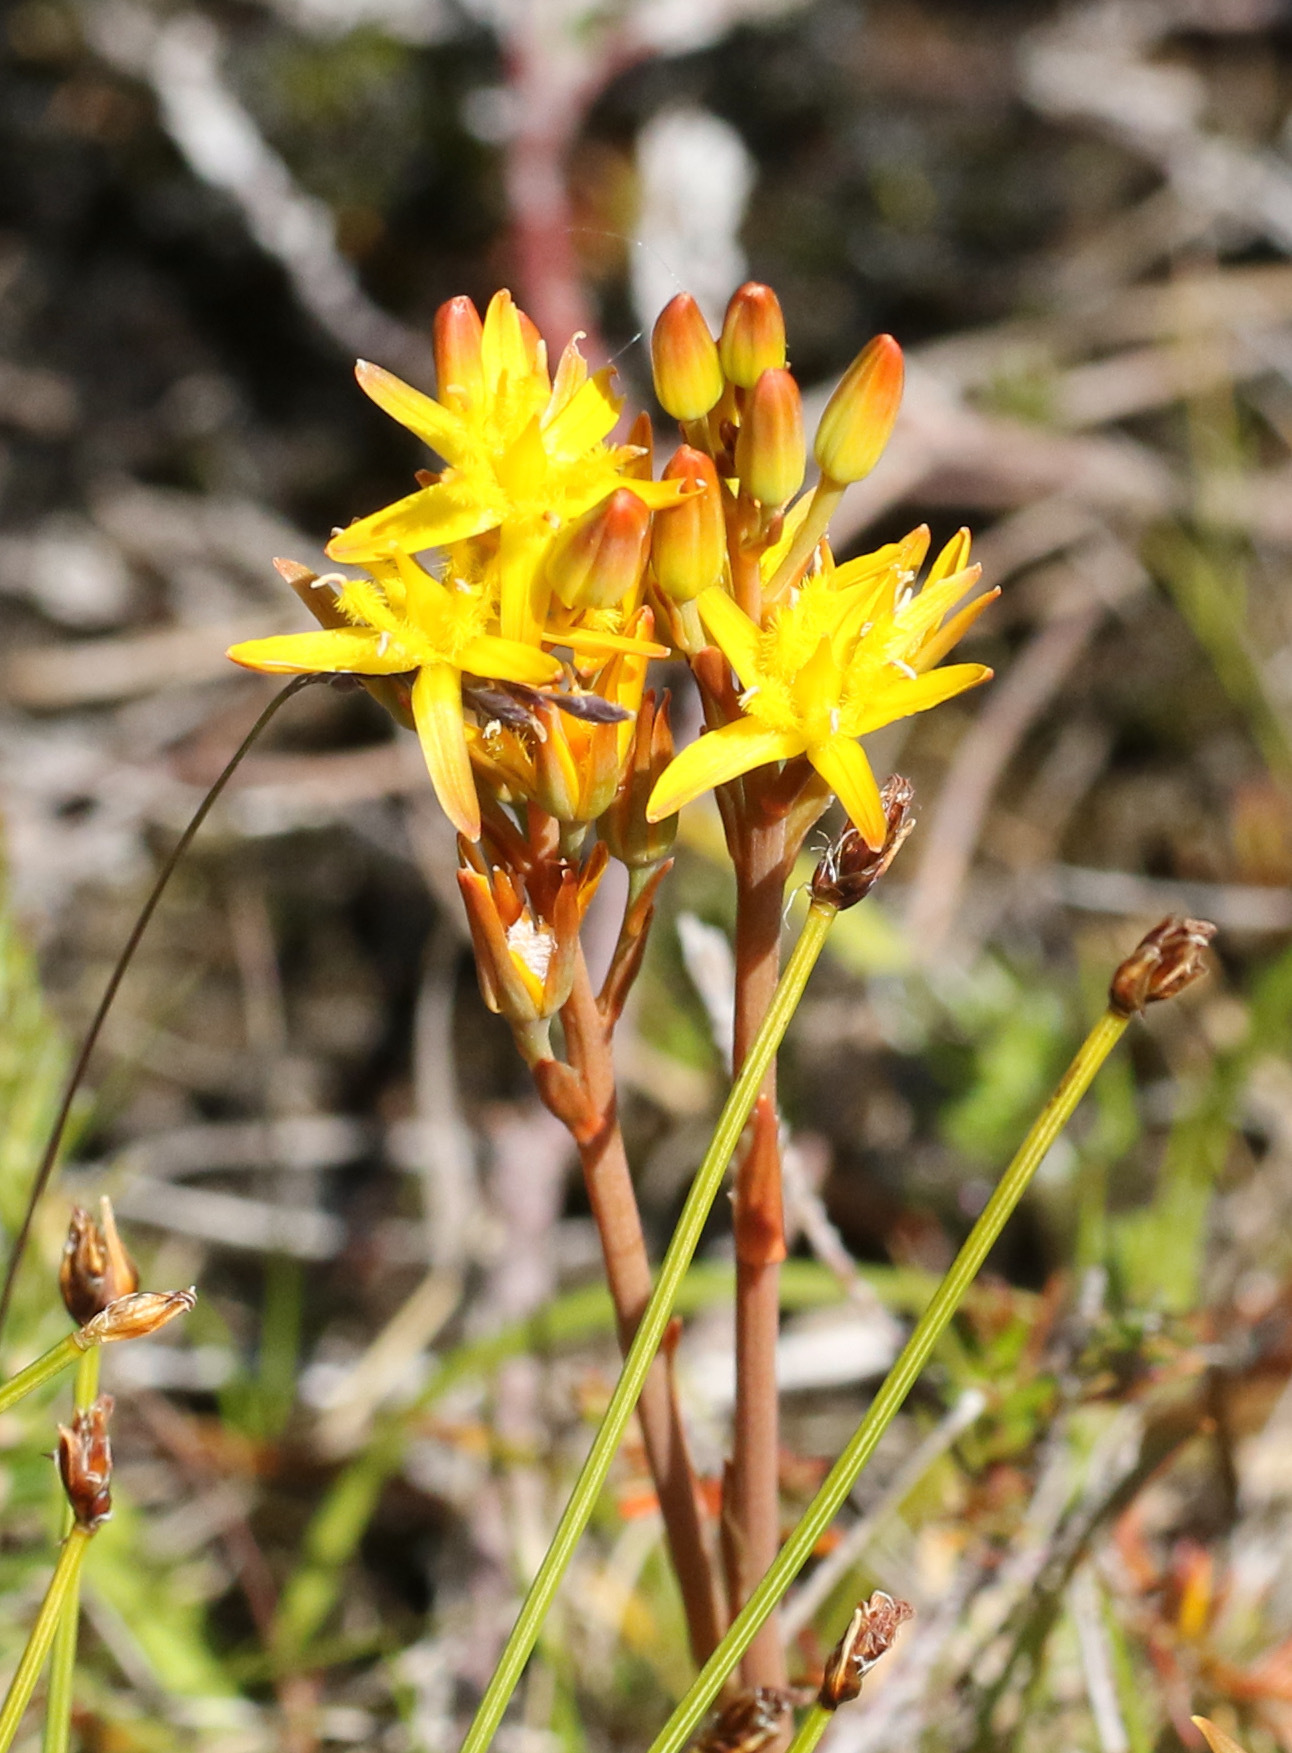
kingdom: Plantae
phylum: Tracheophyta
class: Liliopsida
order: Dioscoreales
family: Nartheciaceae
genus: Narthecium
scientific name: Narthecium ossifragum
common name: Bog asphodel
